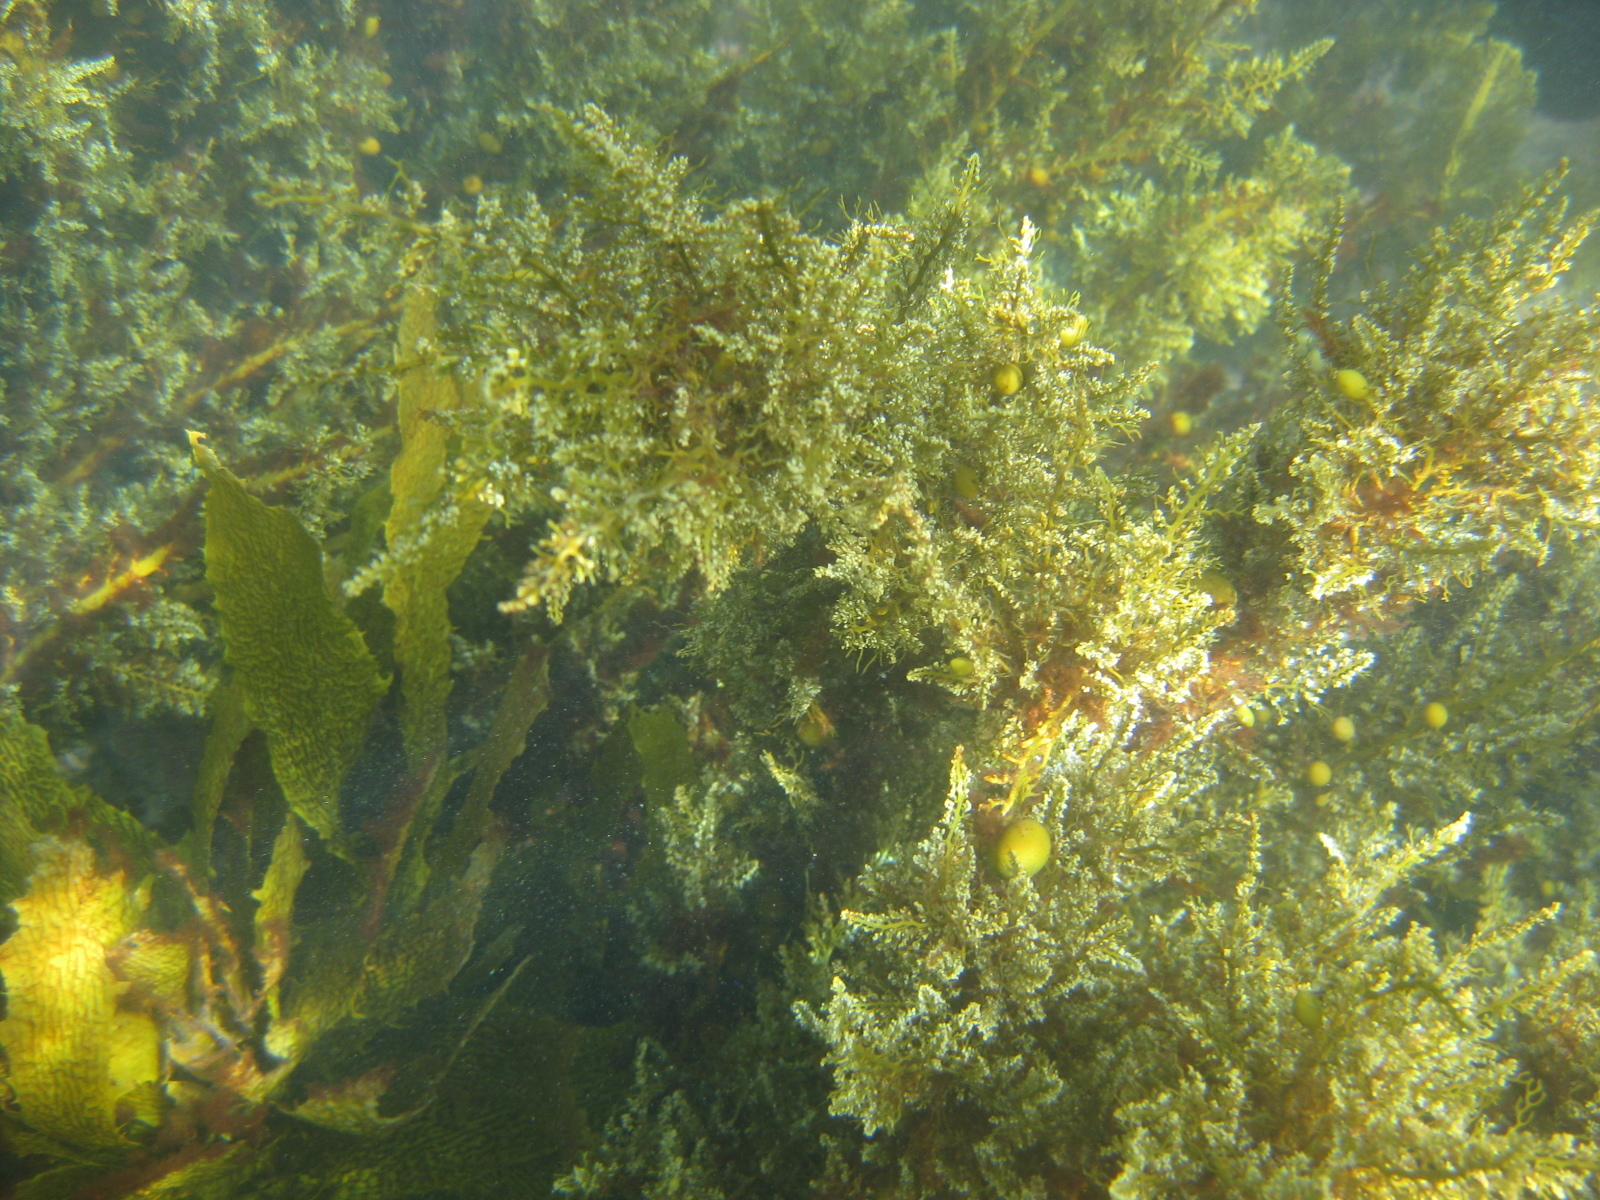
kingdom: Chromista
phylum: Ochrophyta
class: Phaeophyceae
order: Fucales
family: Sargassaceae
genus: Carpophyllum
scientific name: Carpophyllum plumosum
